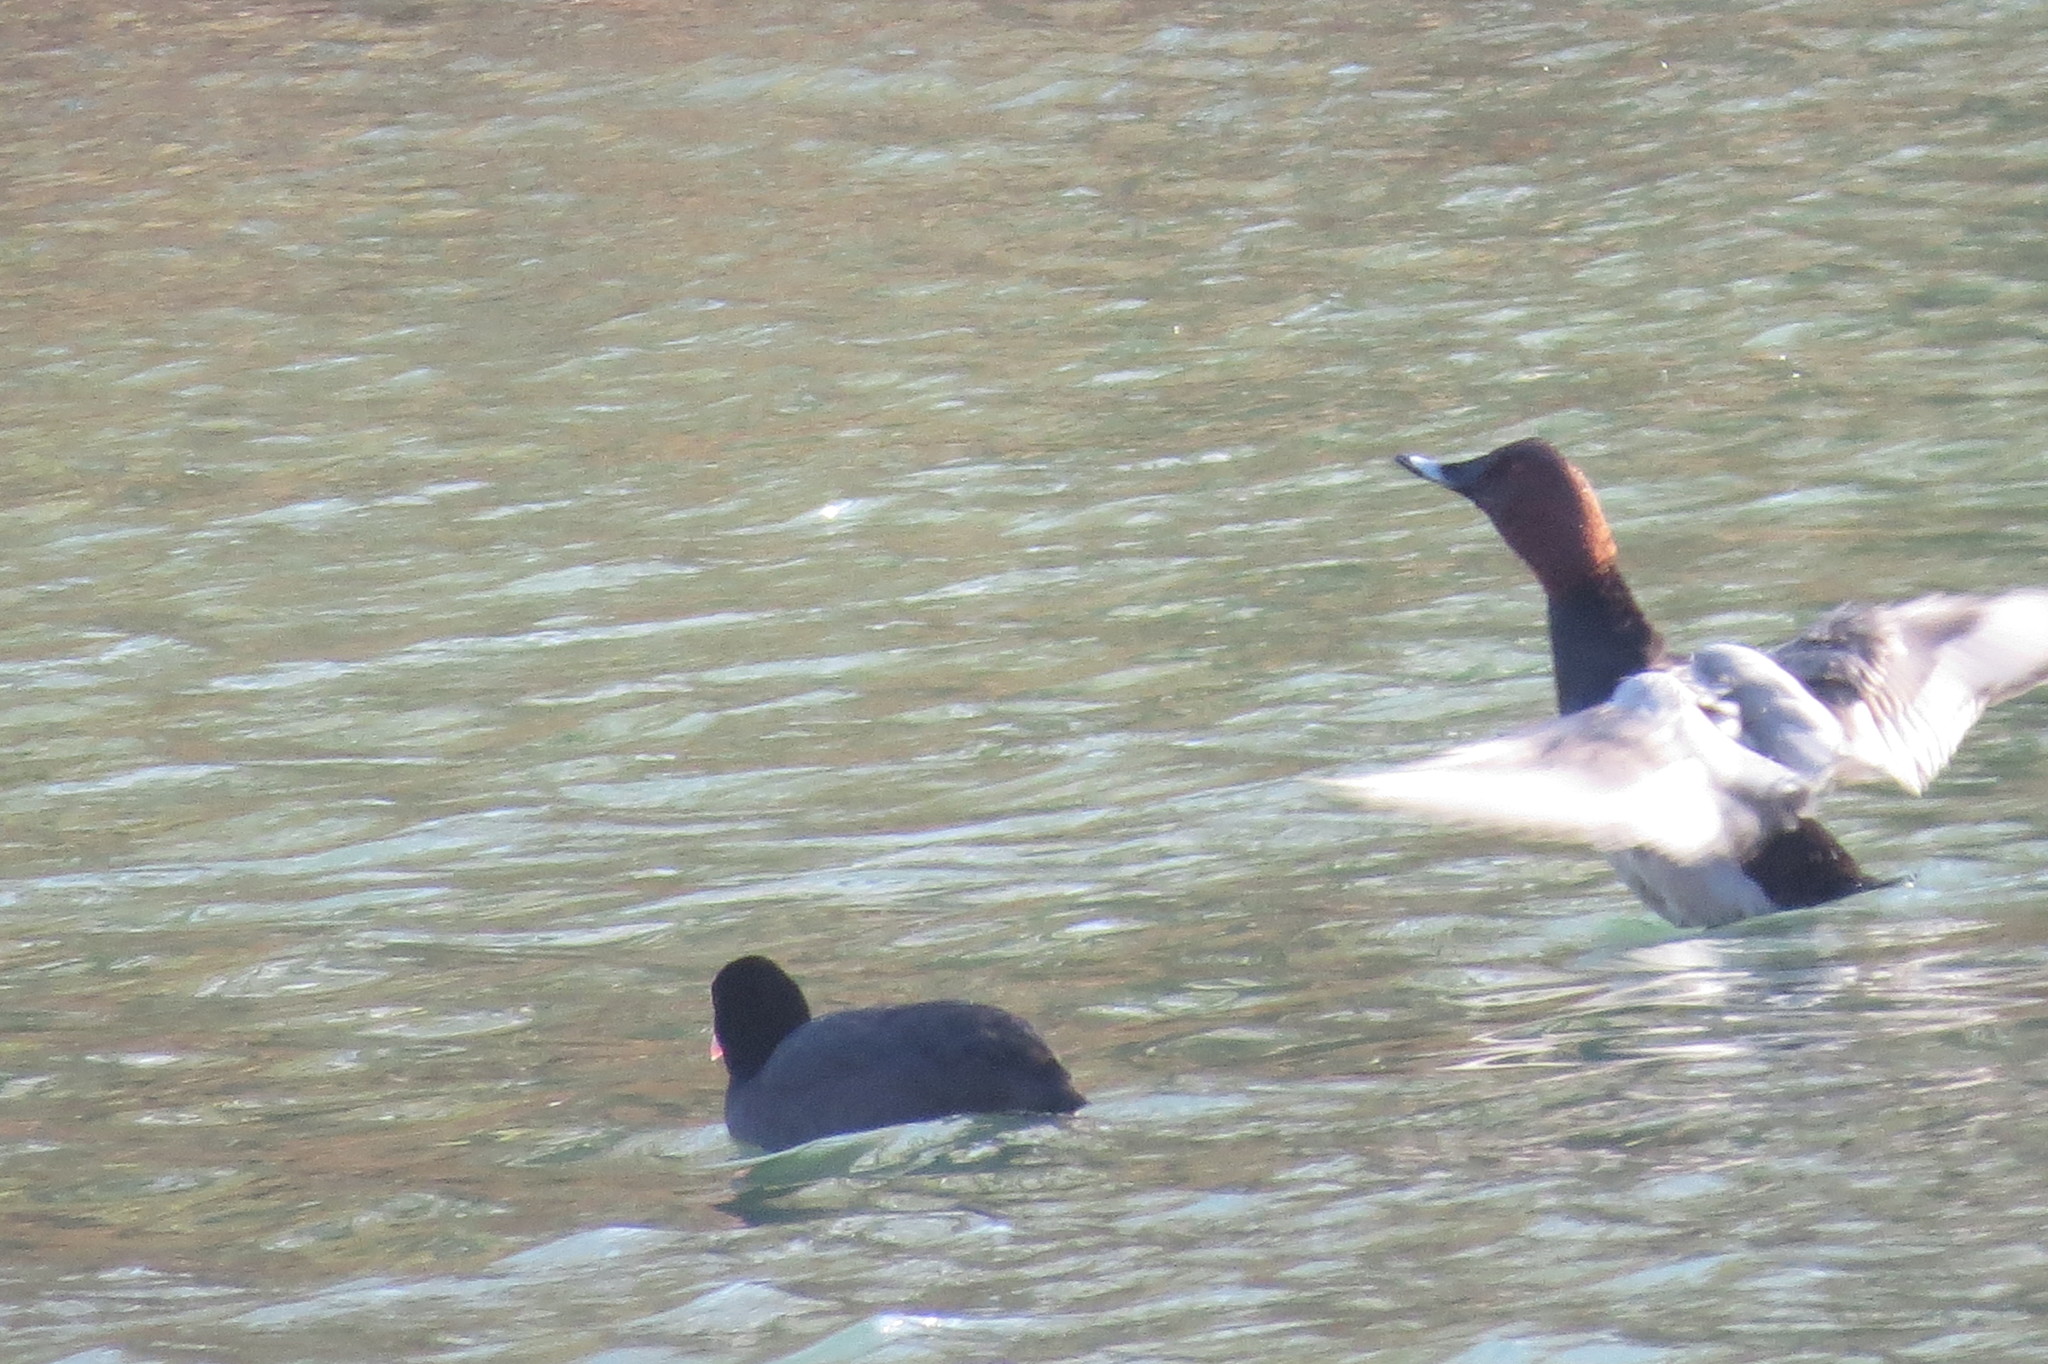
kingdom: Animalia
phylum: Chordata
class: Aves
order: Anseriformes
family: Anatidae
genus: Aythya
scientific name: Aythya ferina
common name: Common pochard
